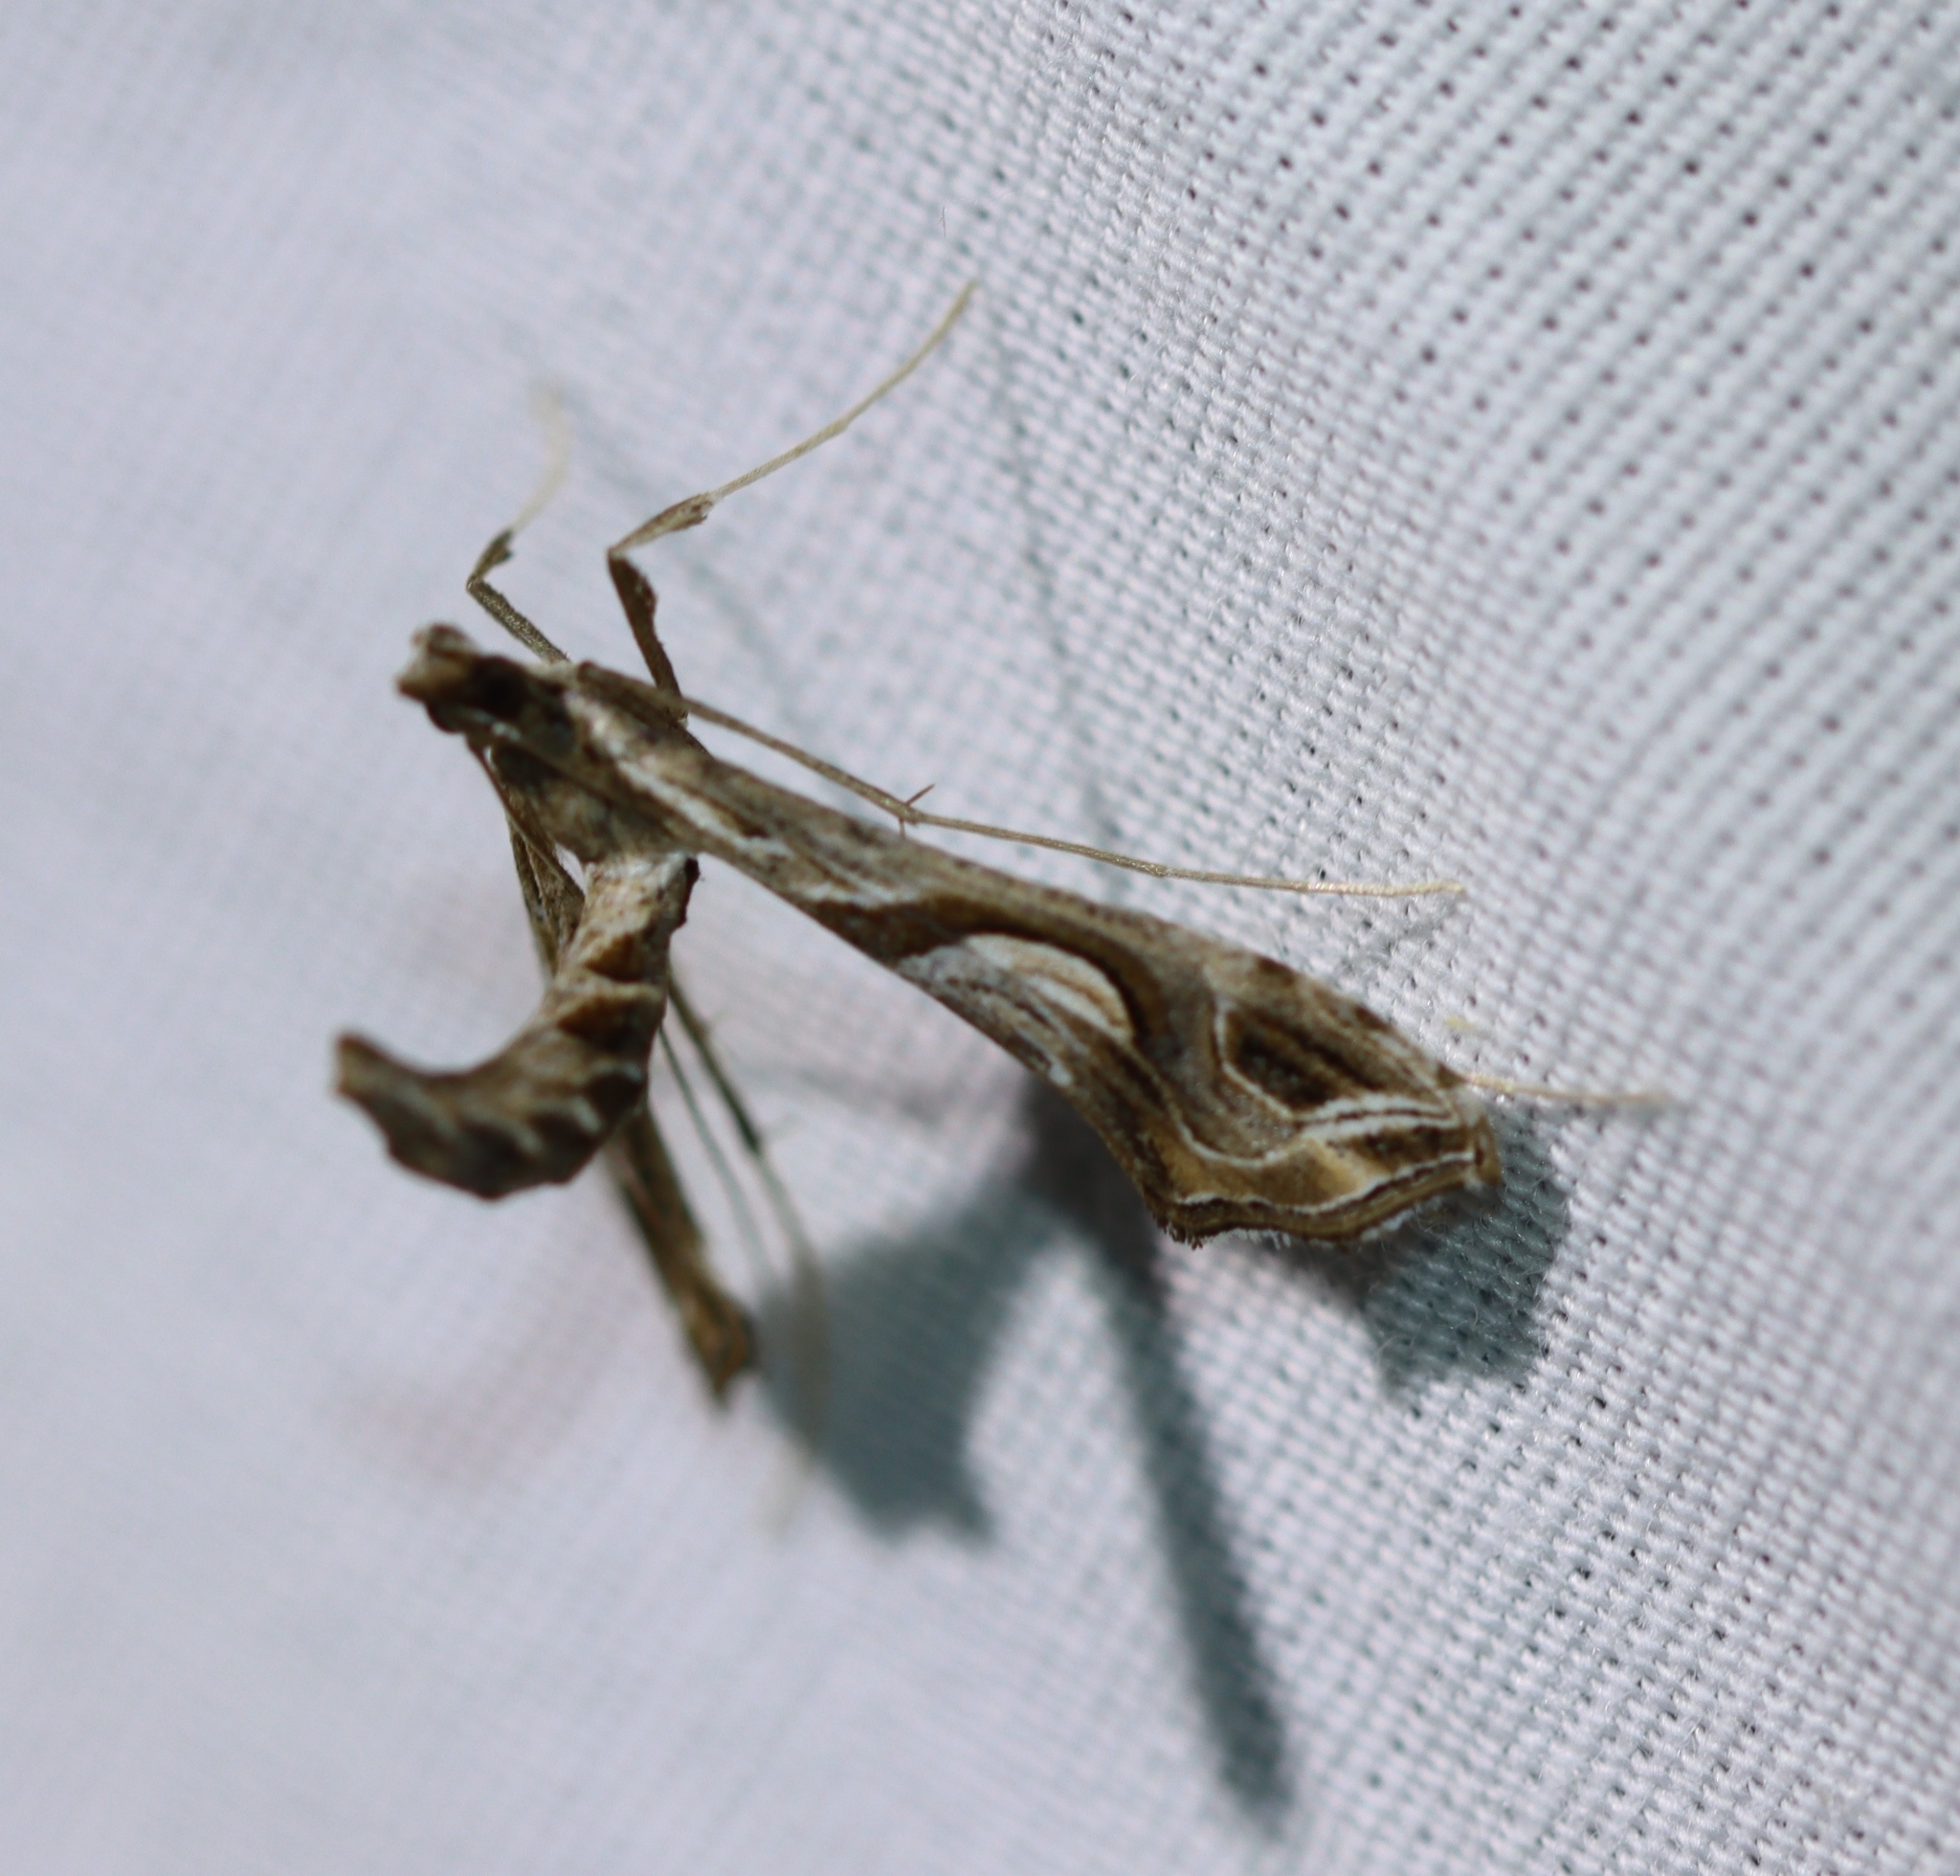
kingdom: Animalia
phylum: Arthropoda
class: Insecta
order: Lepidoptera
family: Crambidae
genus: Lineodes
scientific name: Lineodes integra
